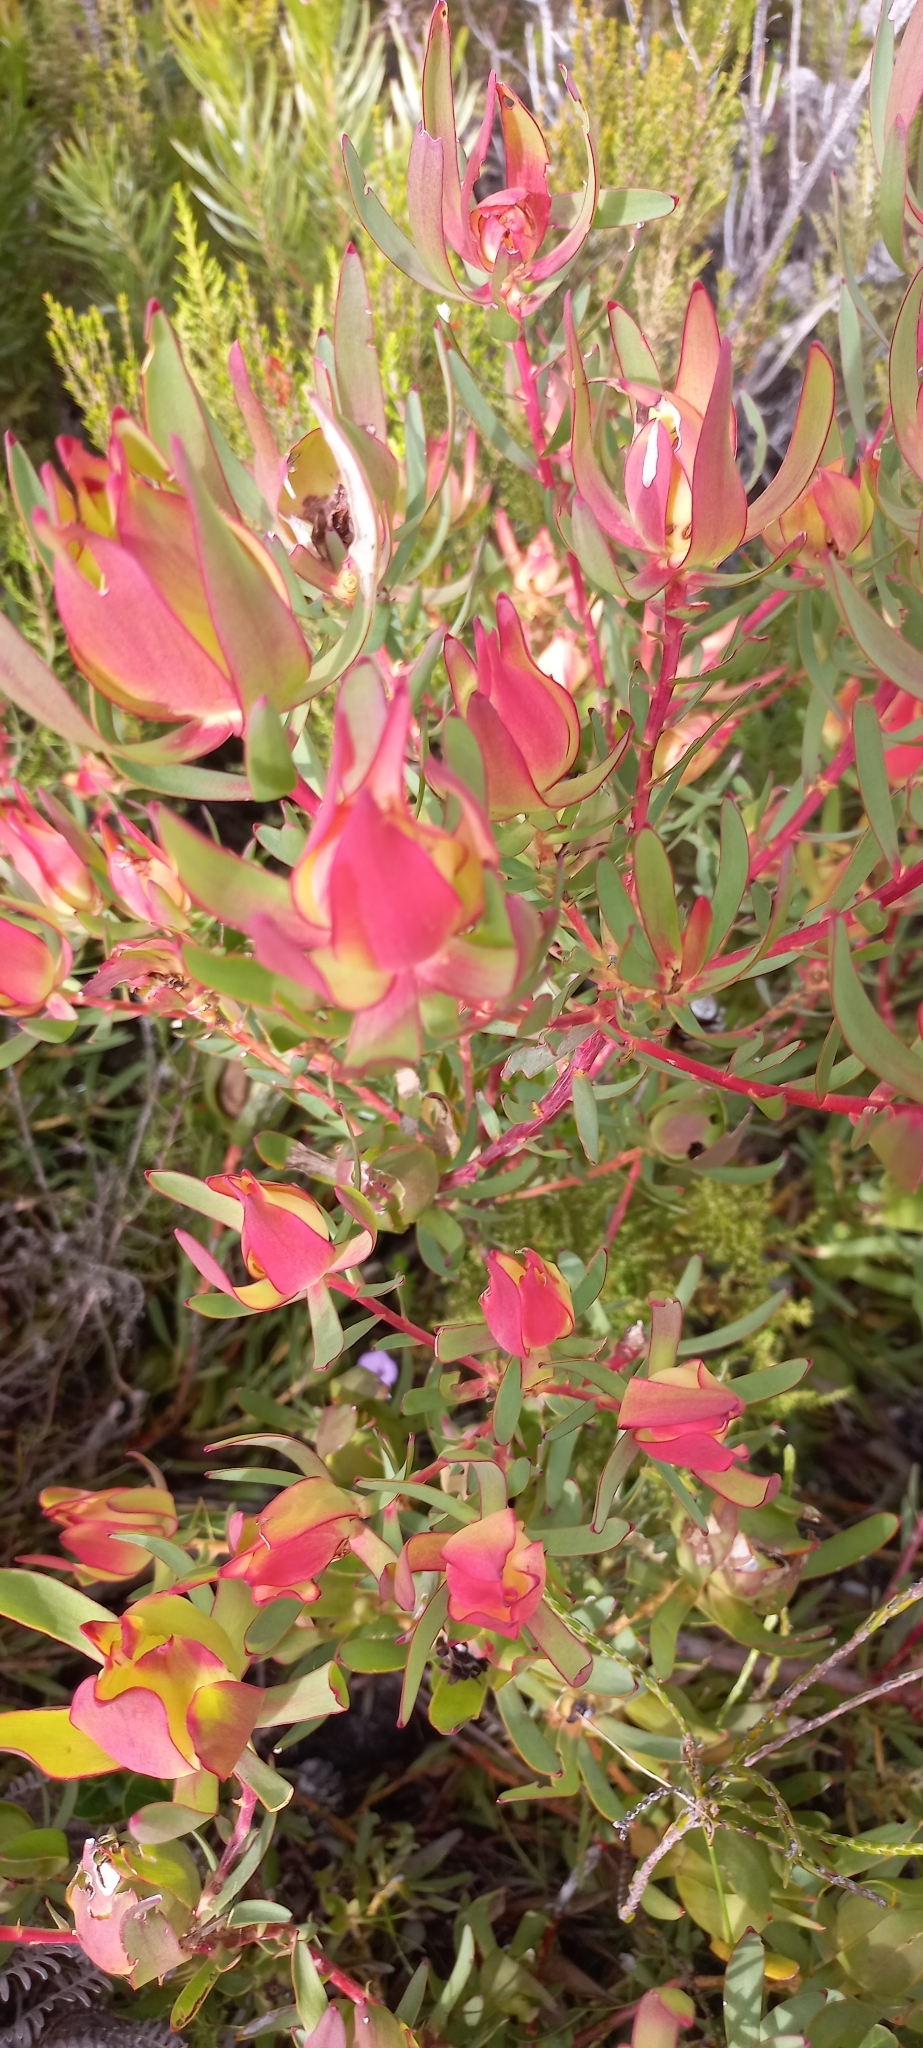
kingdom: Plantae
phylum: Tracheophyta
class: Magnoliopsida
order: Proteales
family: Proteaceae
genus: Leucadendron
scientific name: Leucadendron salignum
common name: Common sunshine conebush
